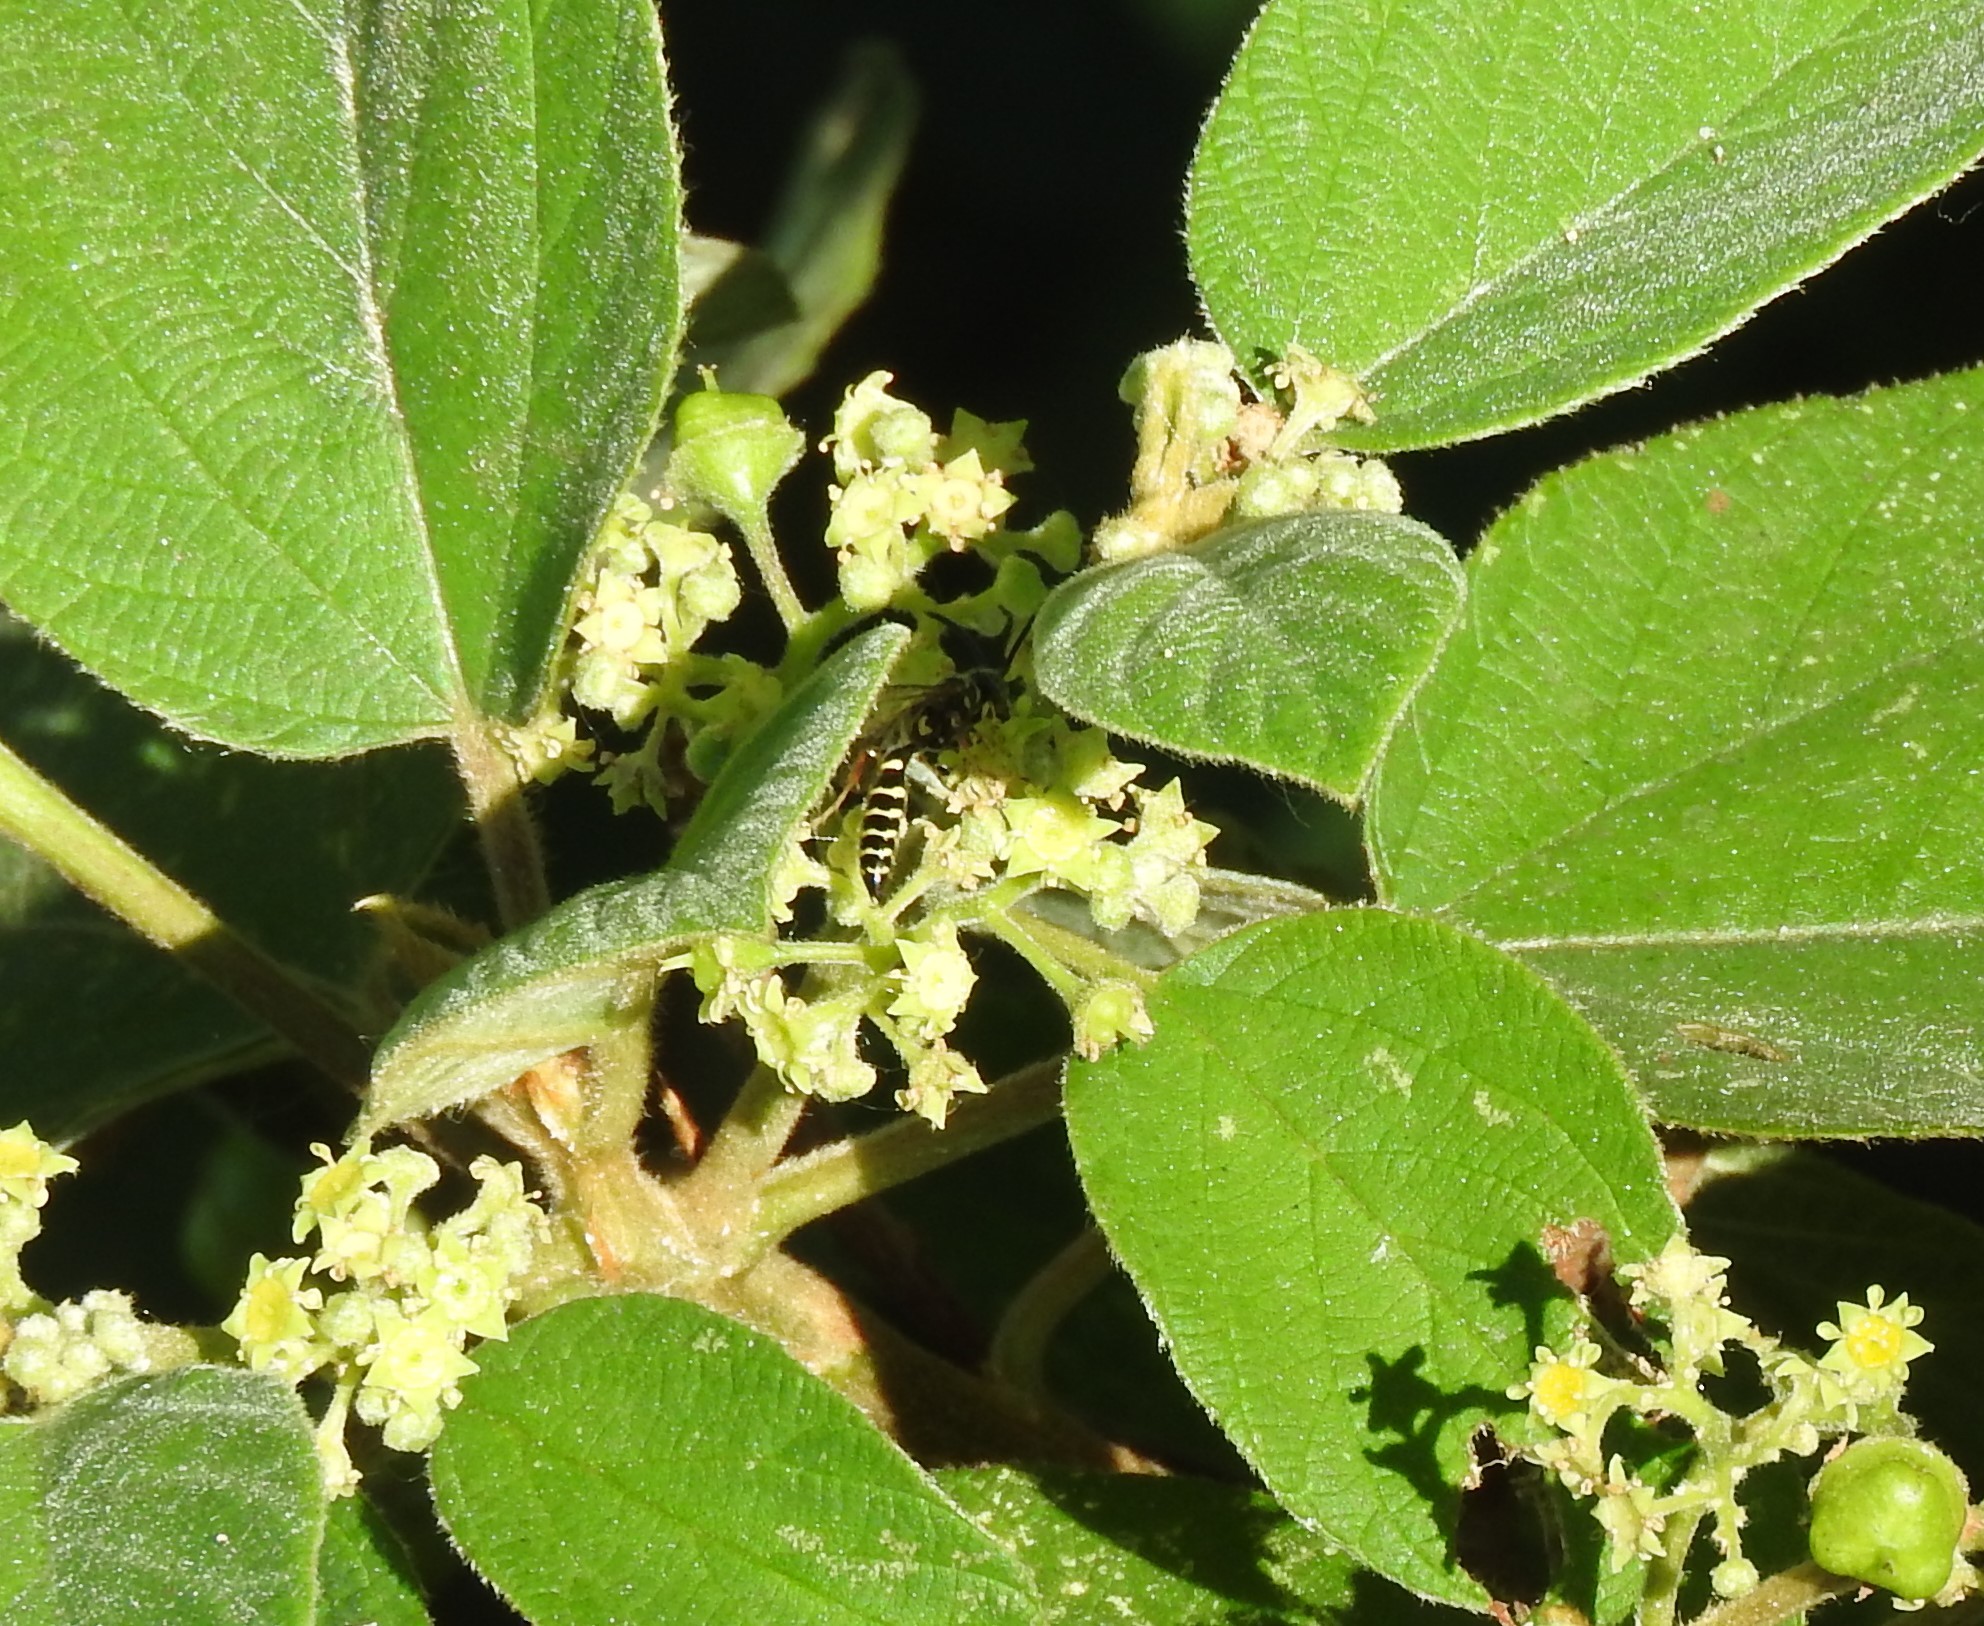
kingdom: Animalia
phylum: Arthropoda
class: Insecta
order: Hymenoptera
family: Tiphiidae
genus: Myzinum
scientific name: Myzinum
